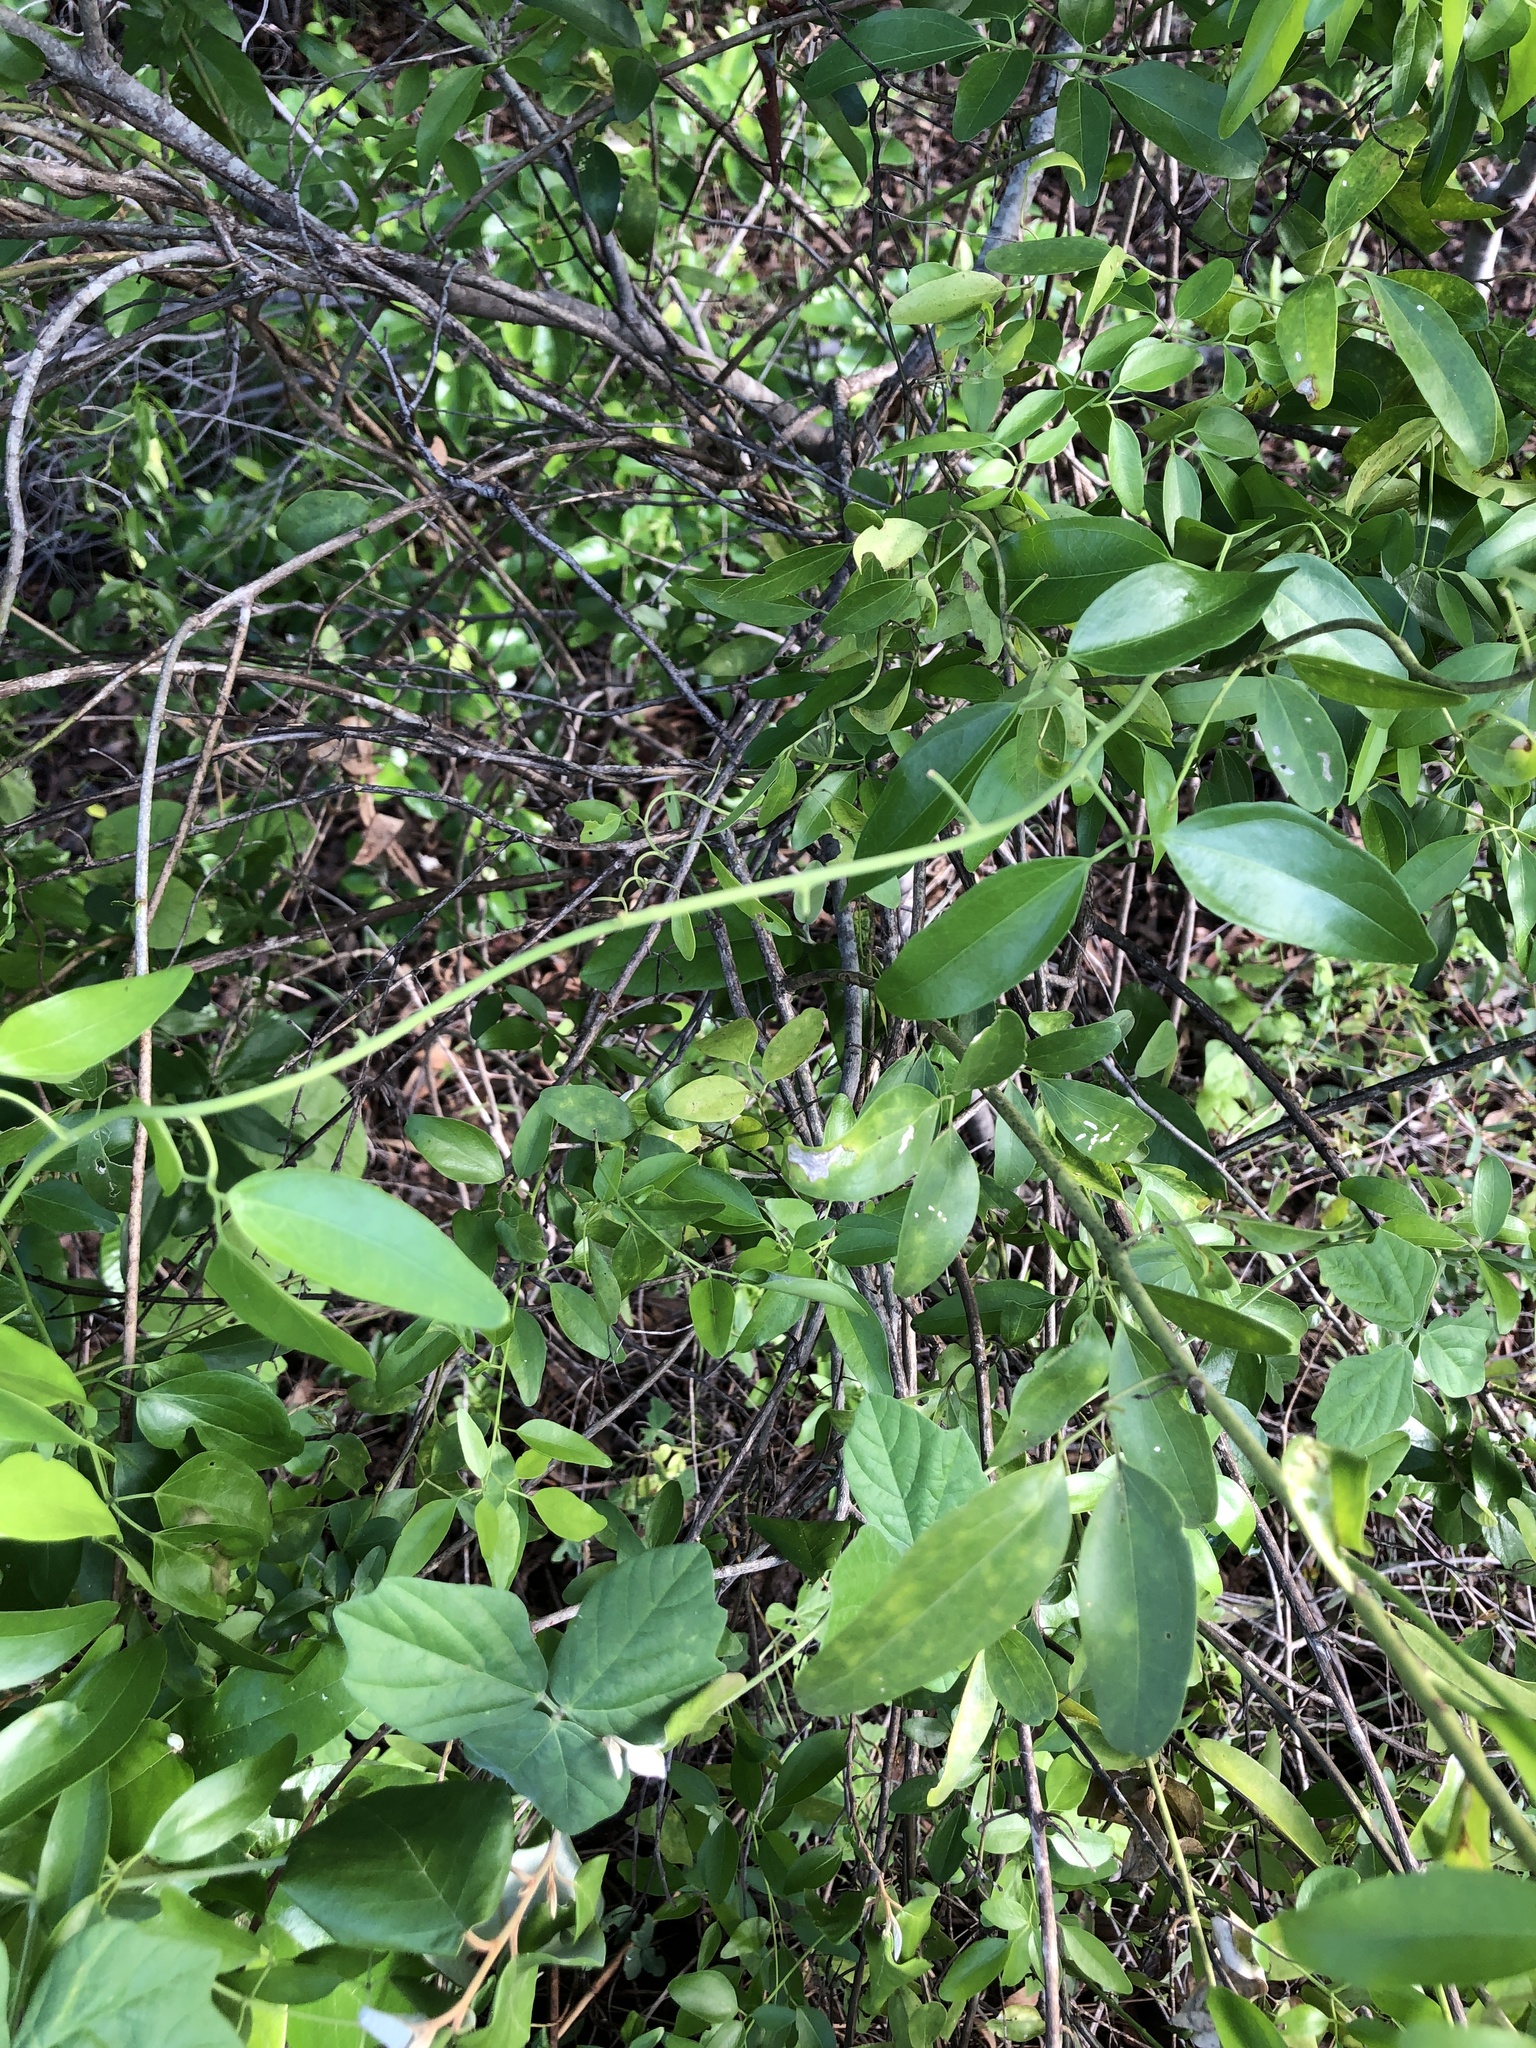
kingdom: Plantae
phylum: Tracheophyta
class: Magnoliopsida
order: Lamiales
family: Oleaceae
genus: Jasminum
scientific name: Jasminum didymum
